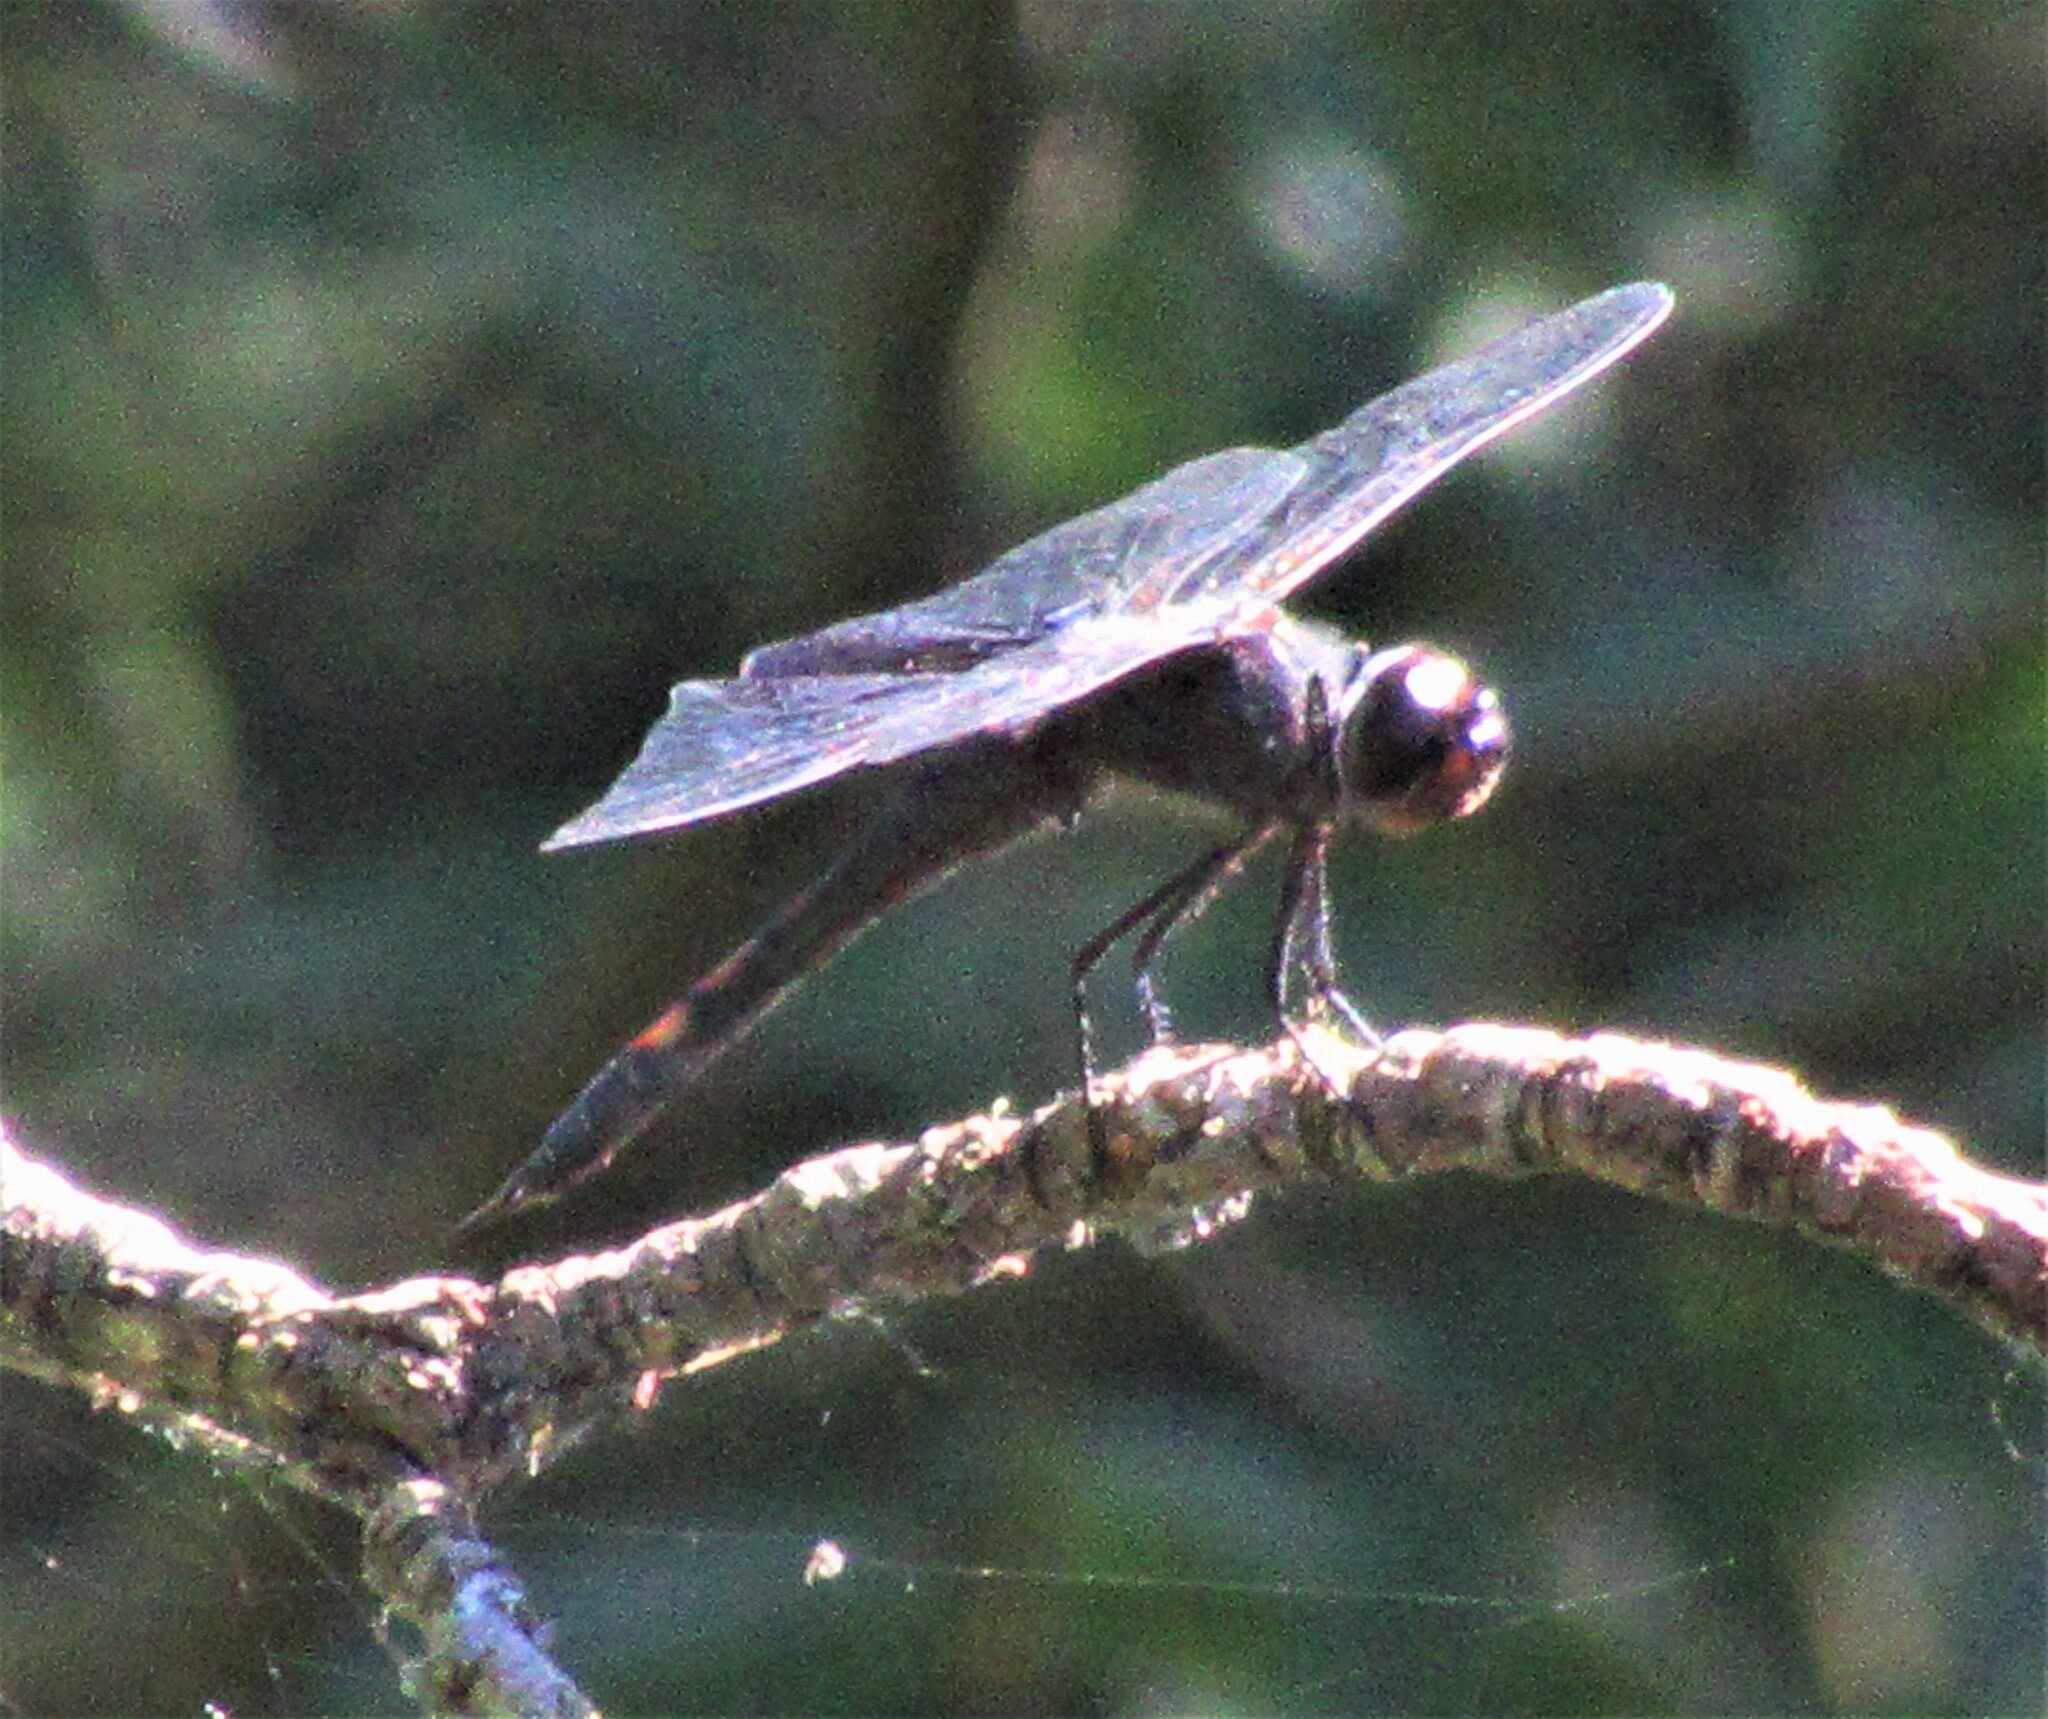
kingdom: Animalia
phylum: Arthropoda
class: Insecta
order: Odonata
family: Libellulidae
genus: Tramea
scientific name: Tramea lacerata
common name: Black saddlebags
